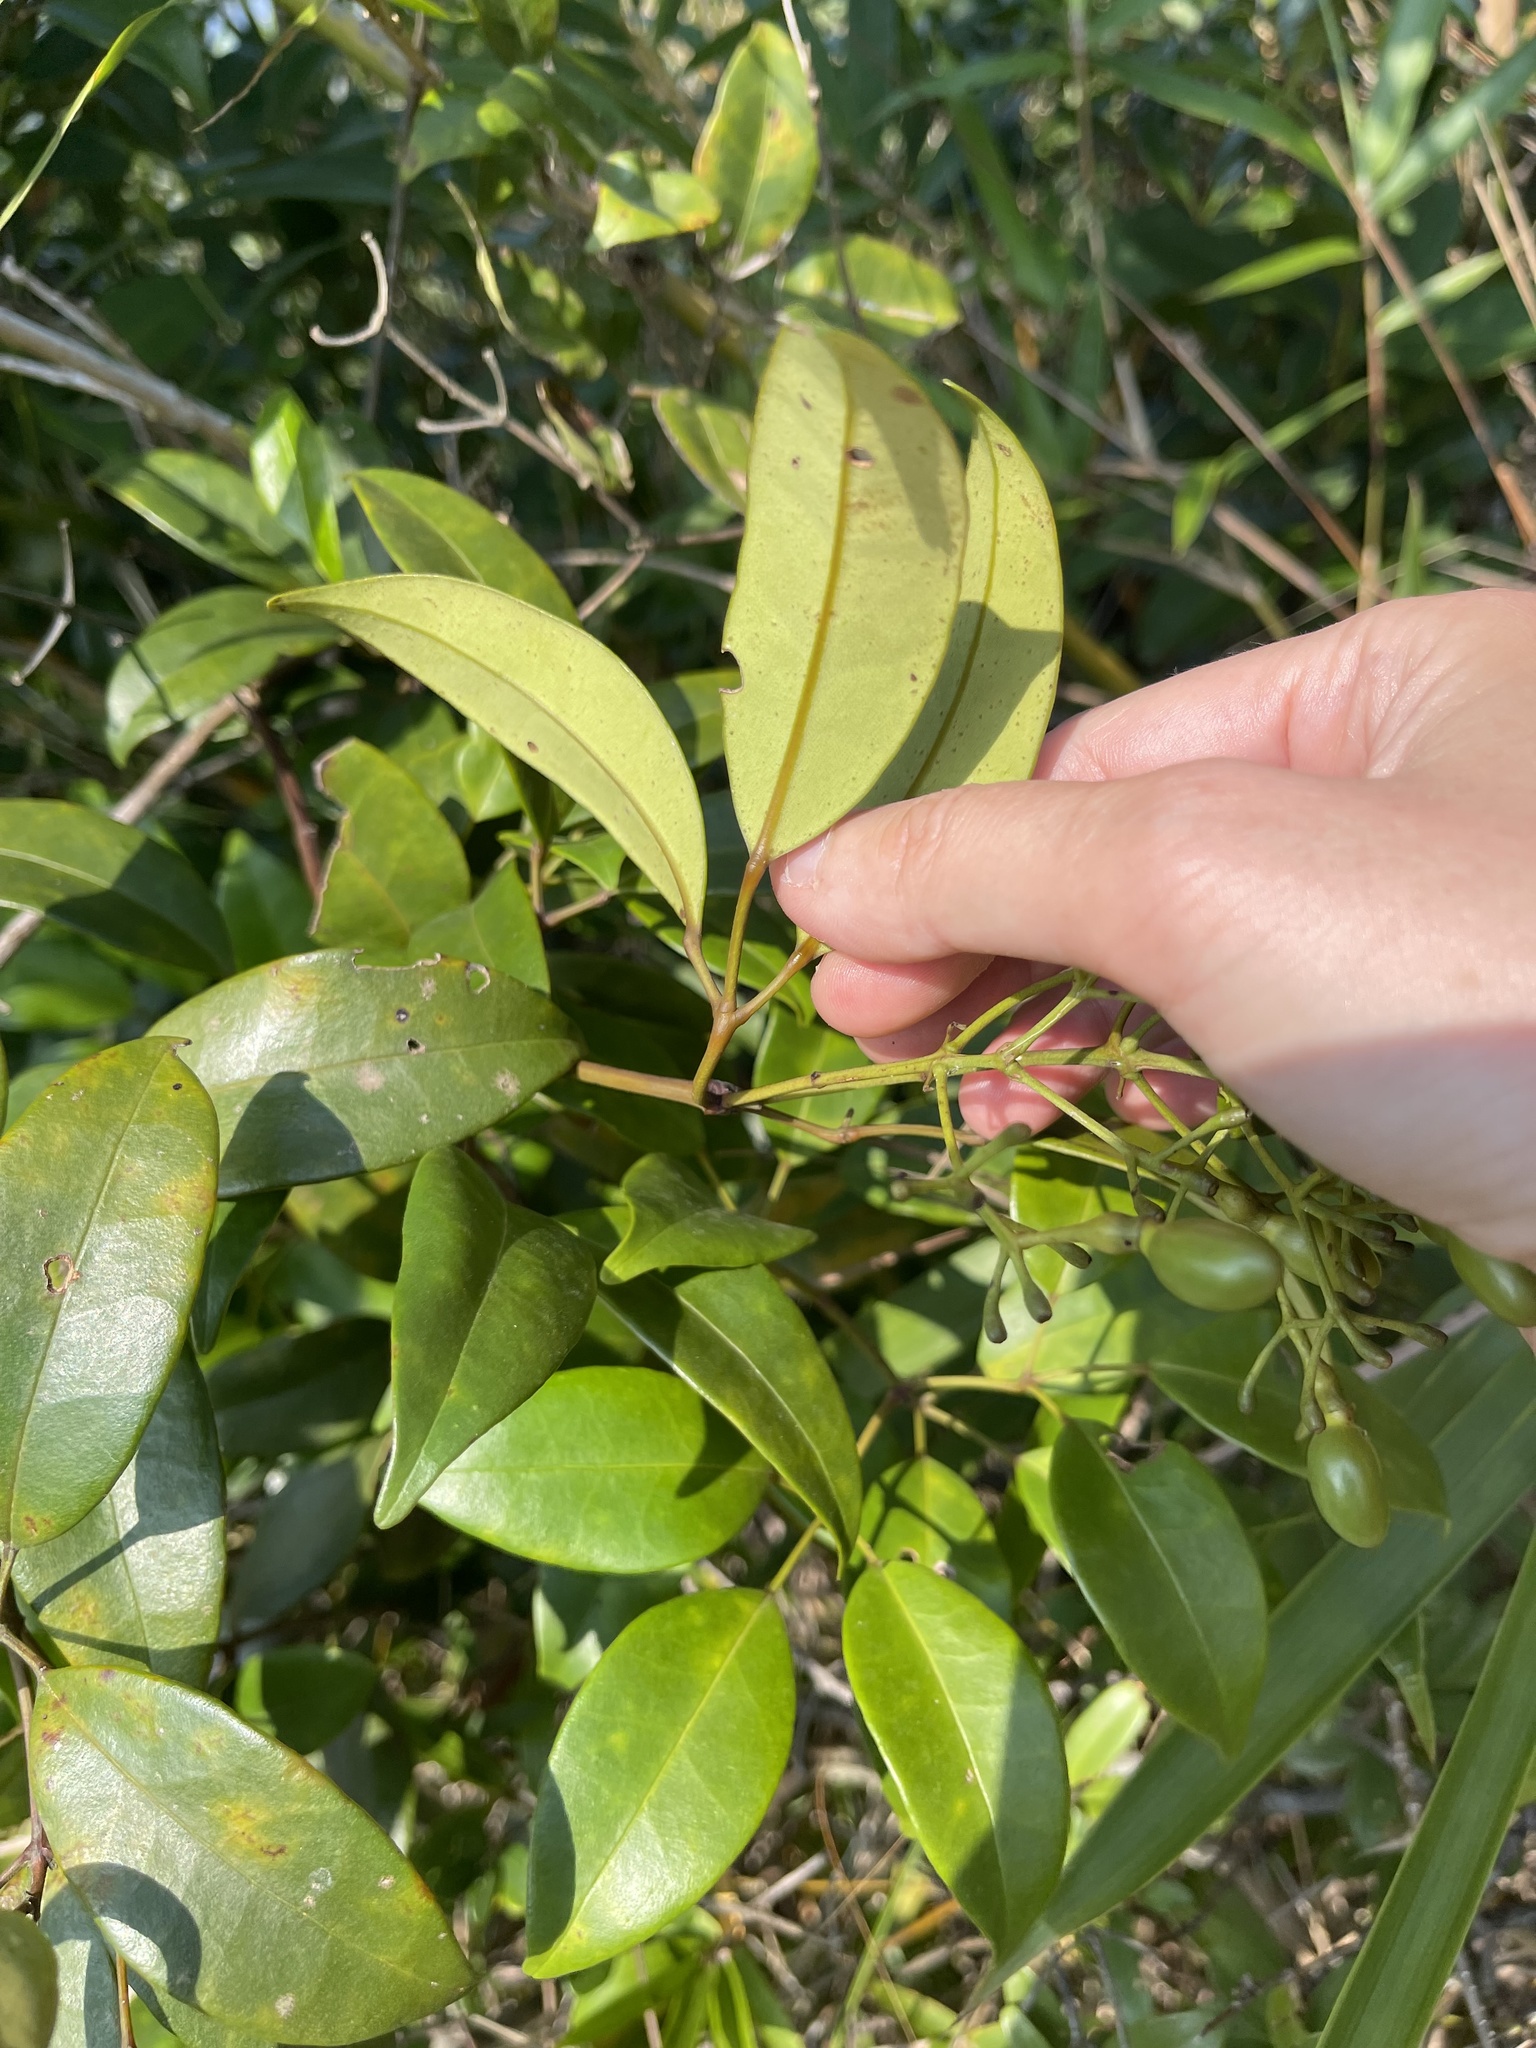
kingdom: Plantae
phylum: Tracheophyta
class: Magnoliopsida
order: Lamiales
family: Oleaceae
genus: Jasminum
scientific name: Jasminum lanceolaria
